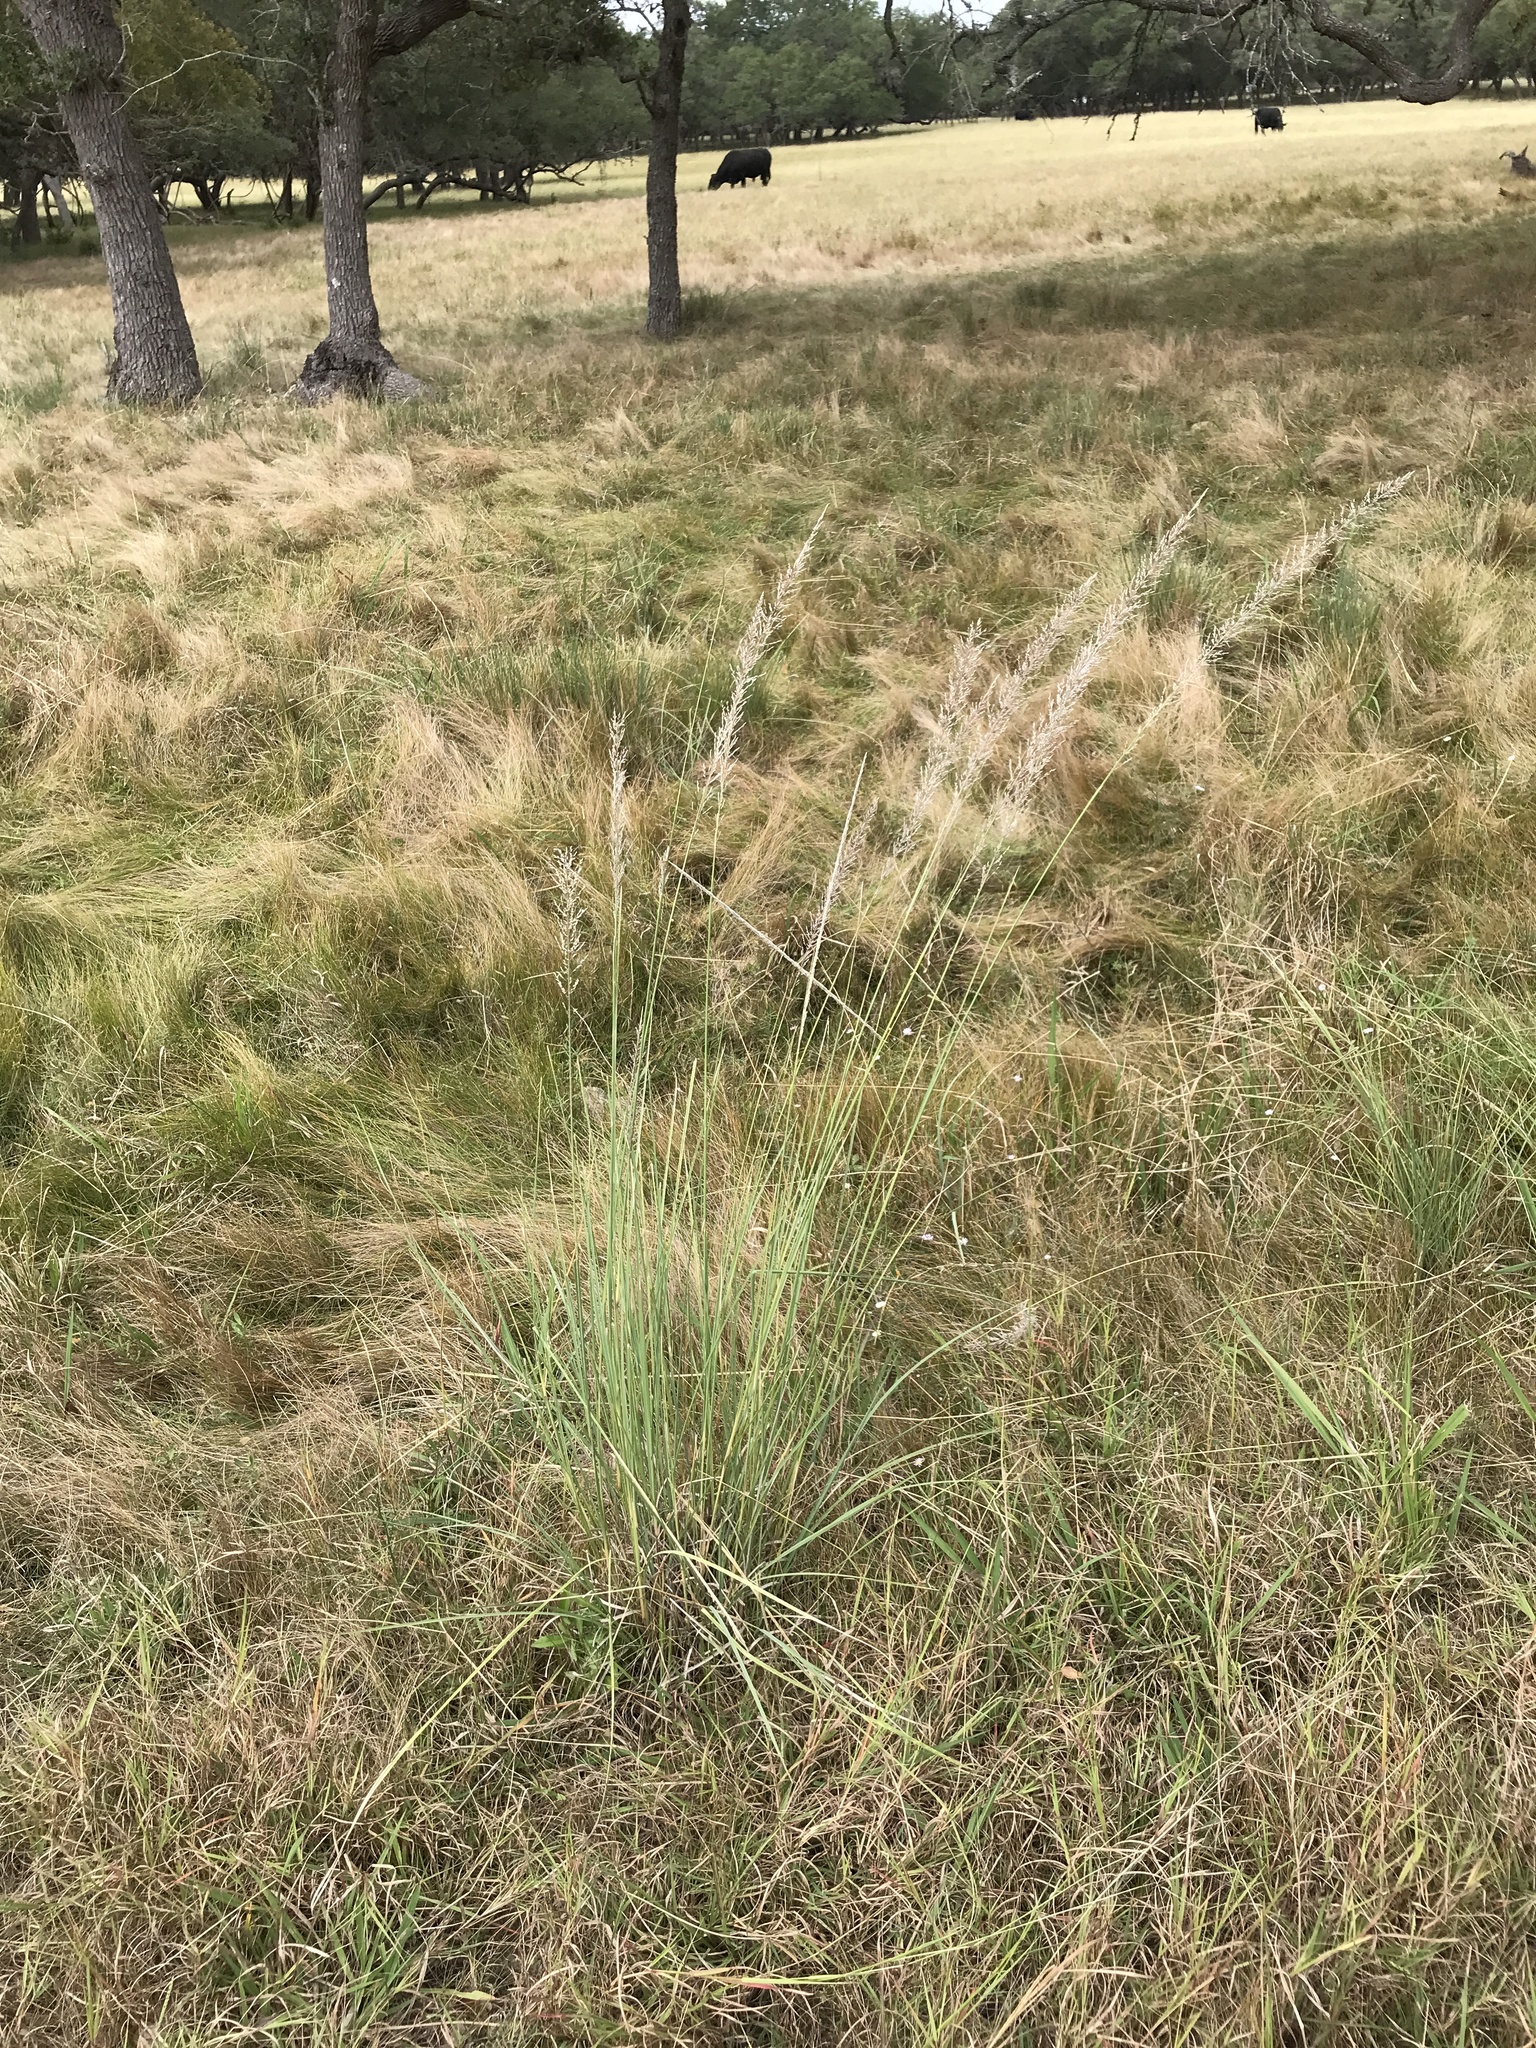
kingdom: Plantae
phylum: Tracheophyta
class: Liliopsida
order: Poales
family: Poaceae
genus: Muhlenbergia
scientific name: Muhlenbergia lindheimeri
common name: Lindheimer's muhly
